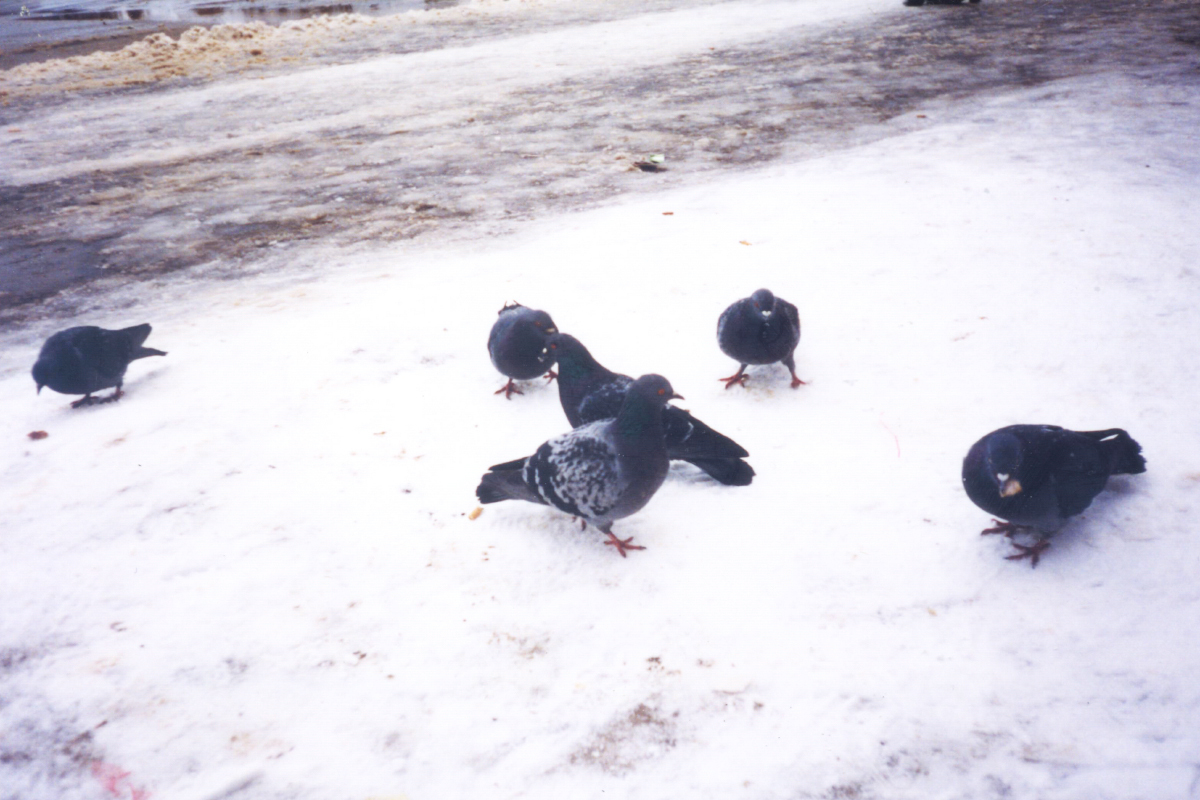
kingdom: Animalia
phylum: Chordata
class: Aves
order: Columbiformes
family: Columbidae
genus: Columba
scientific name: Columba livia
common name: Rock pigeon
